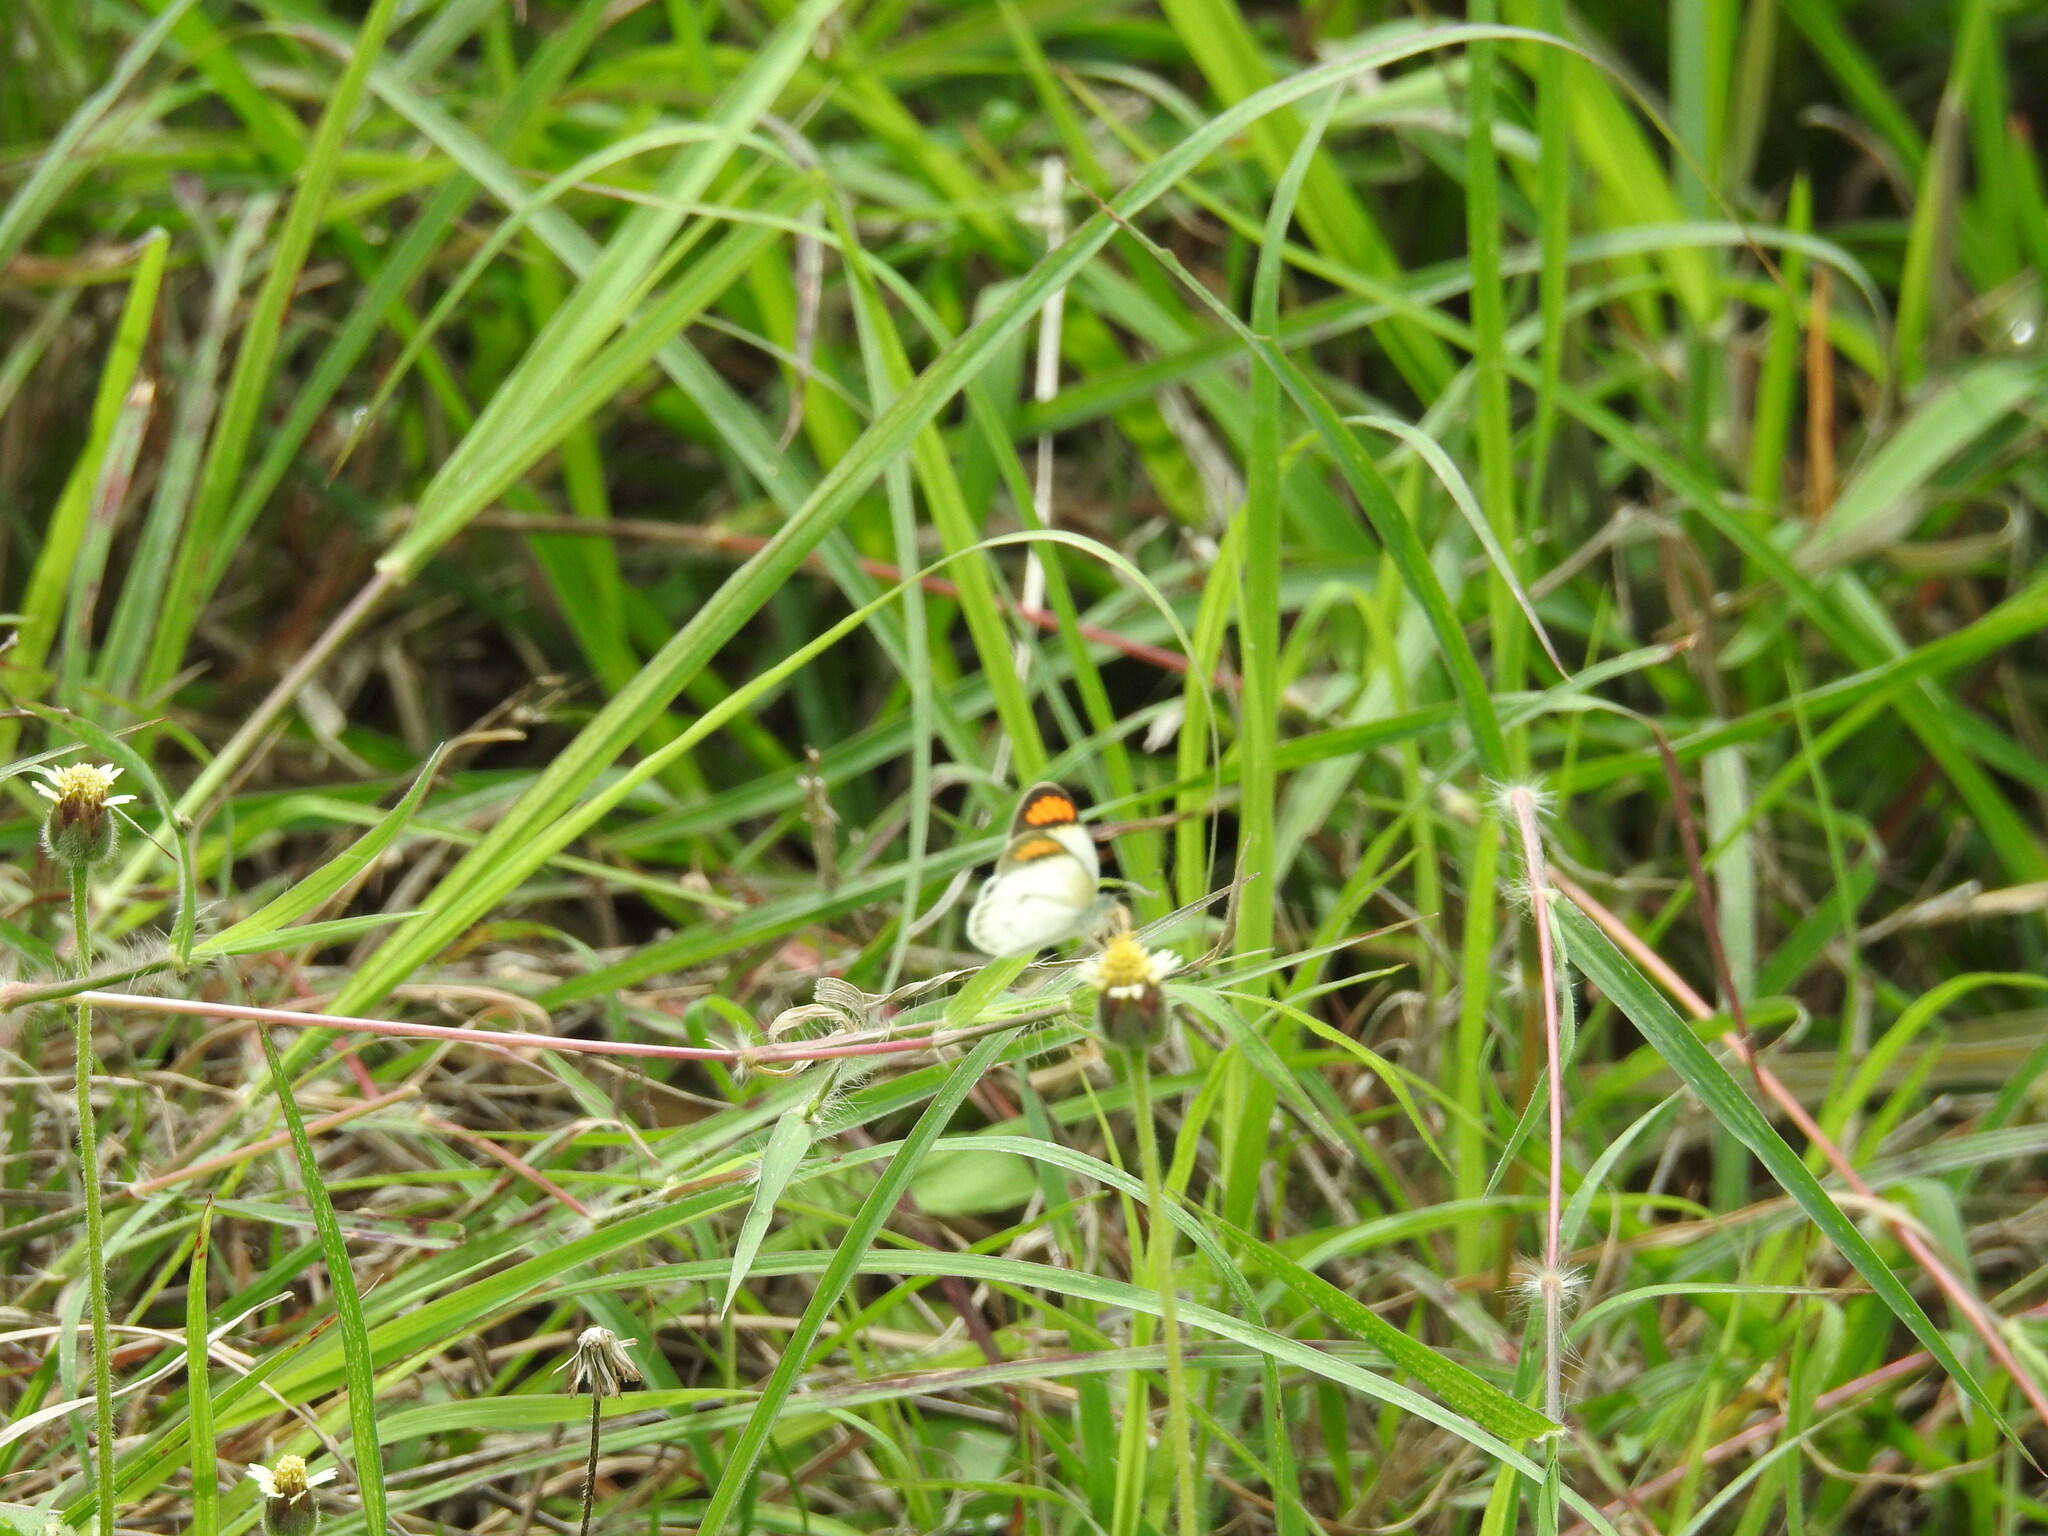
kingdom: Animalia
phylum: Arthropoda
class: Insecta
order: Lepidoptera
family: Pieridae
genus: Colotis
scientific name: Colotis etrida
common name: Little orange tip
